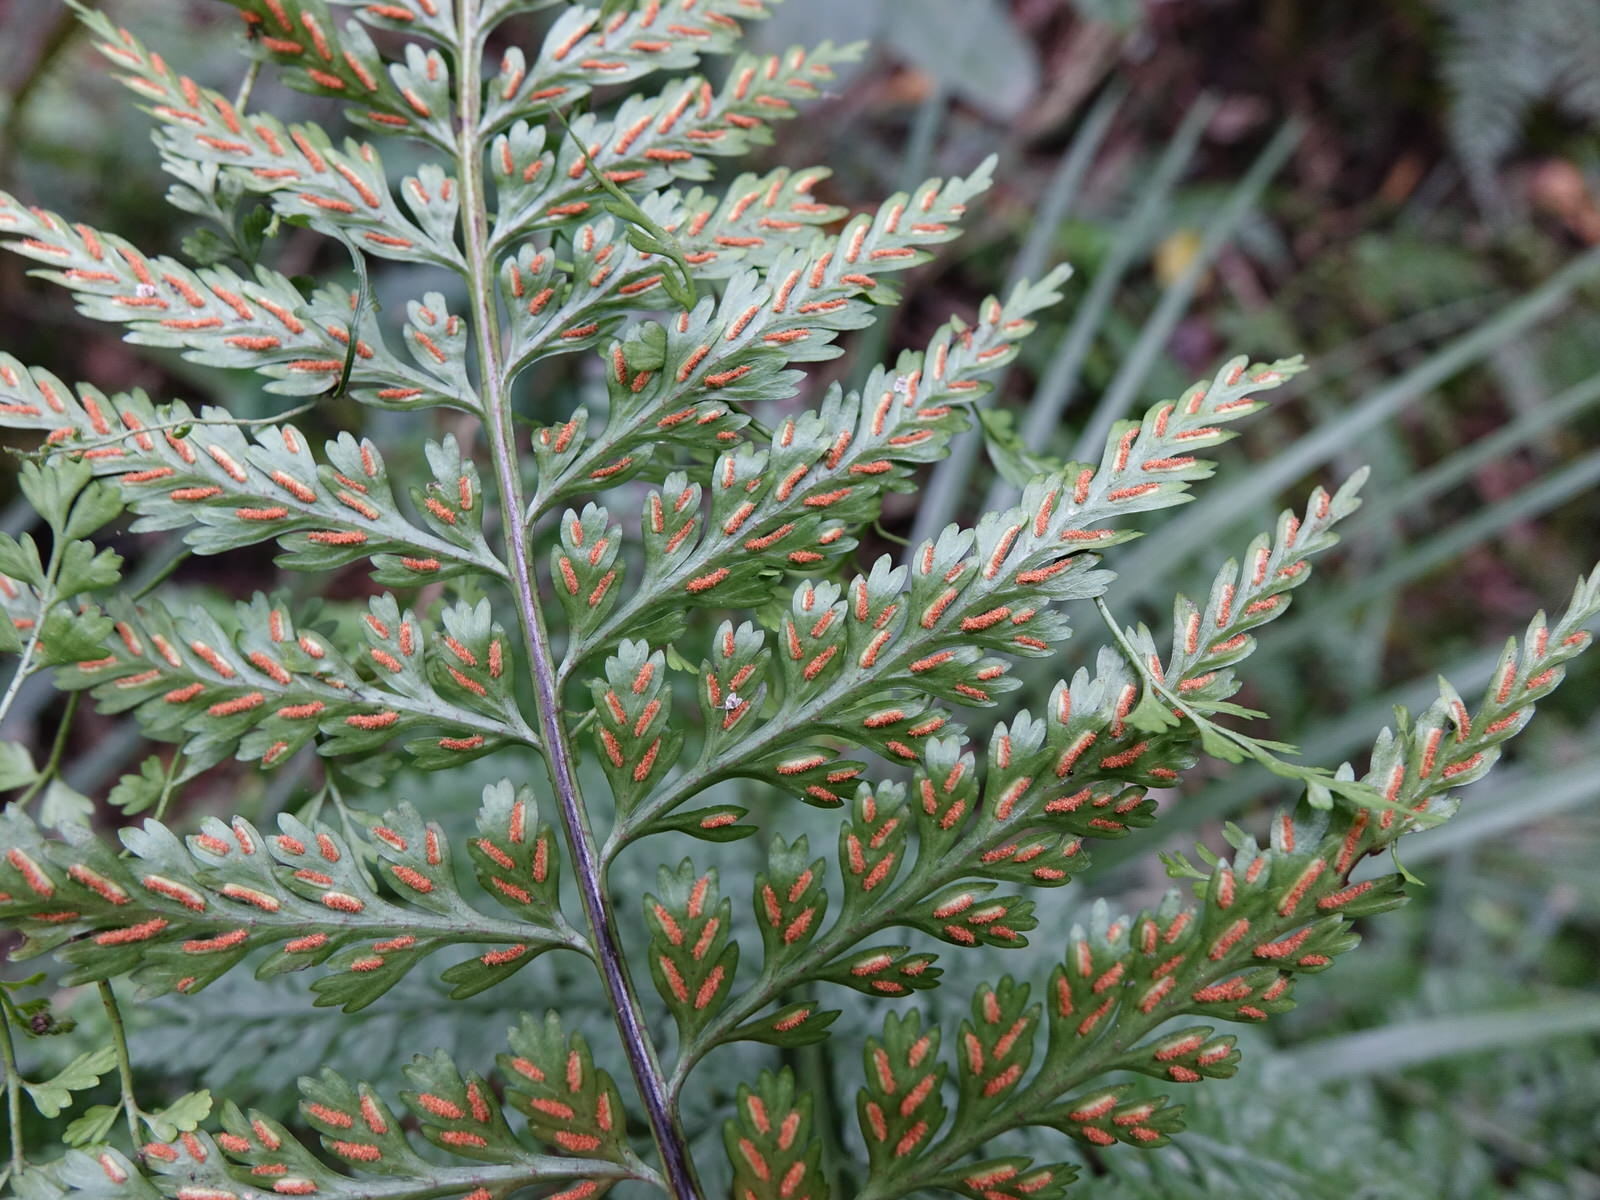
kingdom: Plantae
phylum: Tracheophyta
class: Polypodiopsida
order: Polypodiales
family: Aspleniaceae
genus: Asplenium
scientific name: Asplenium bulbiferum
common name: Mother fern
